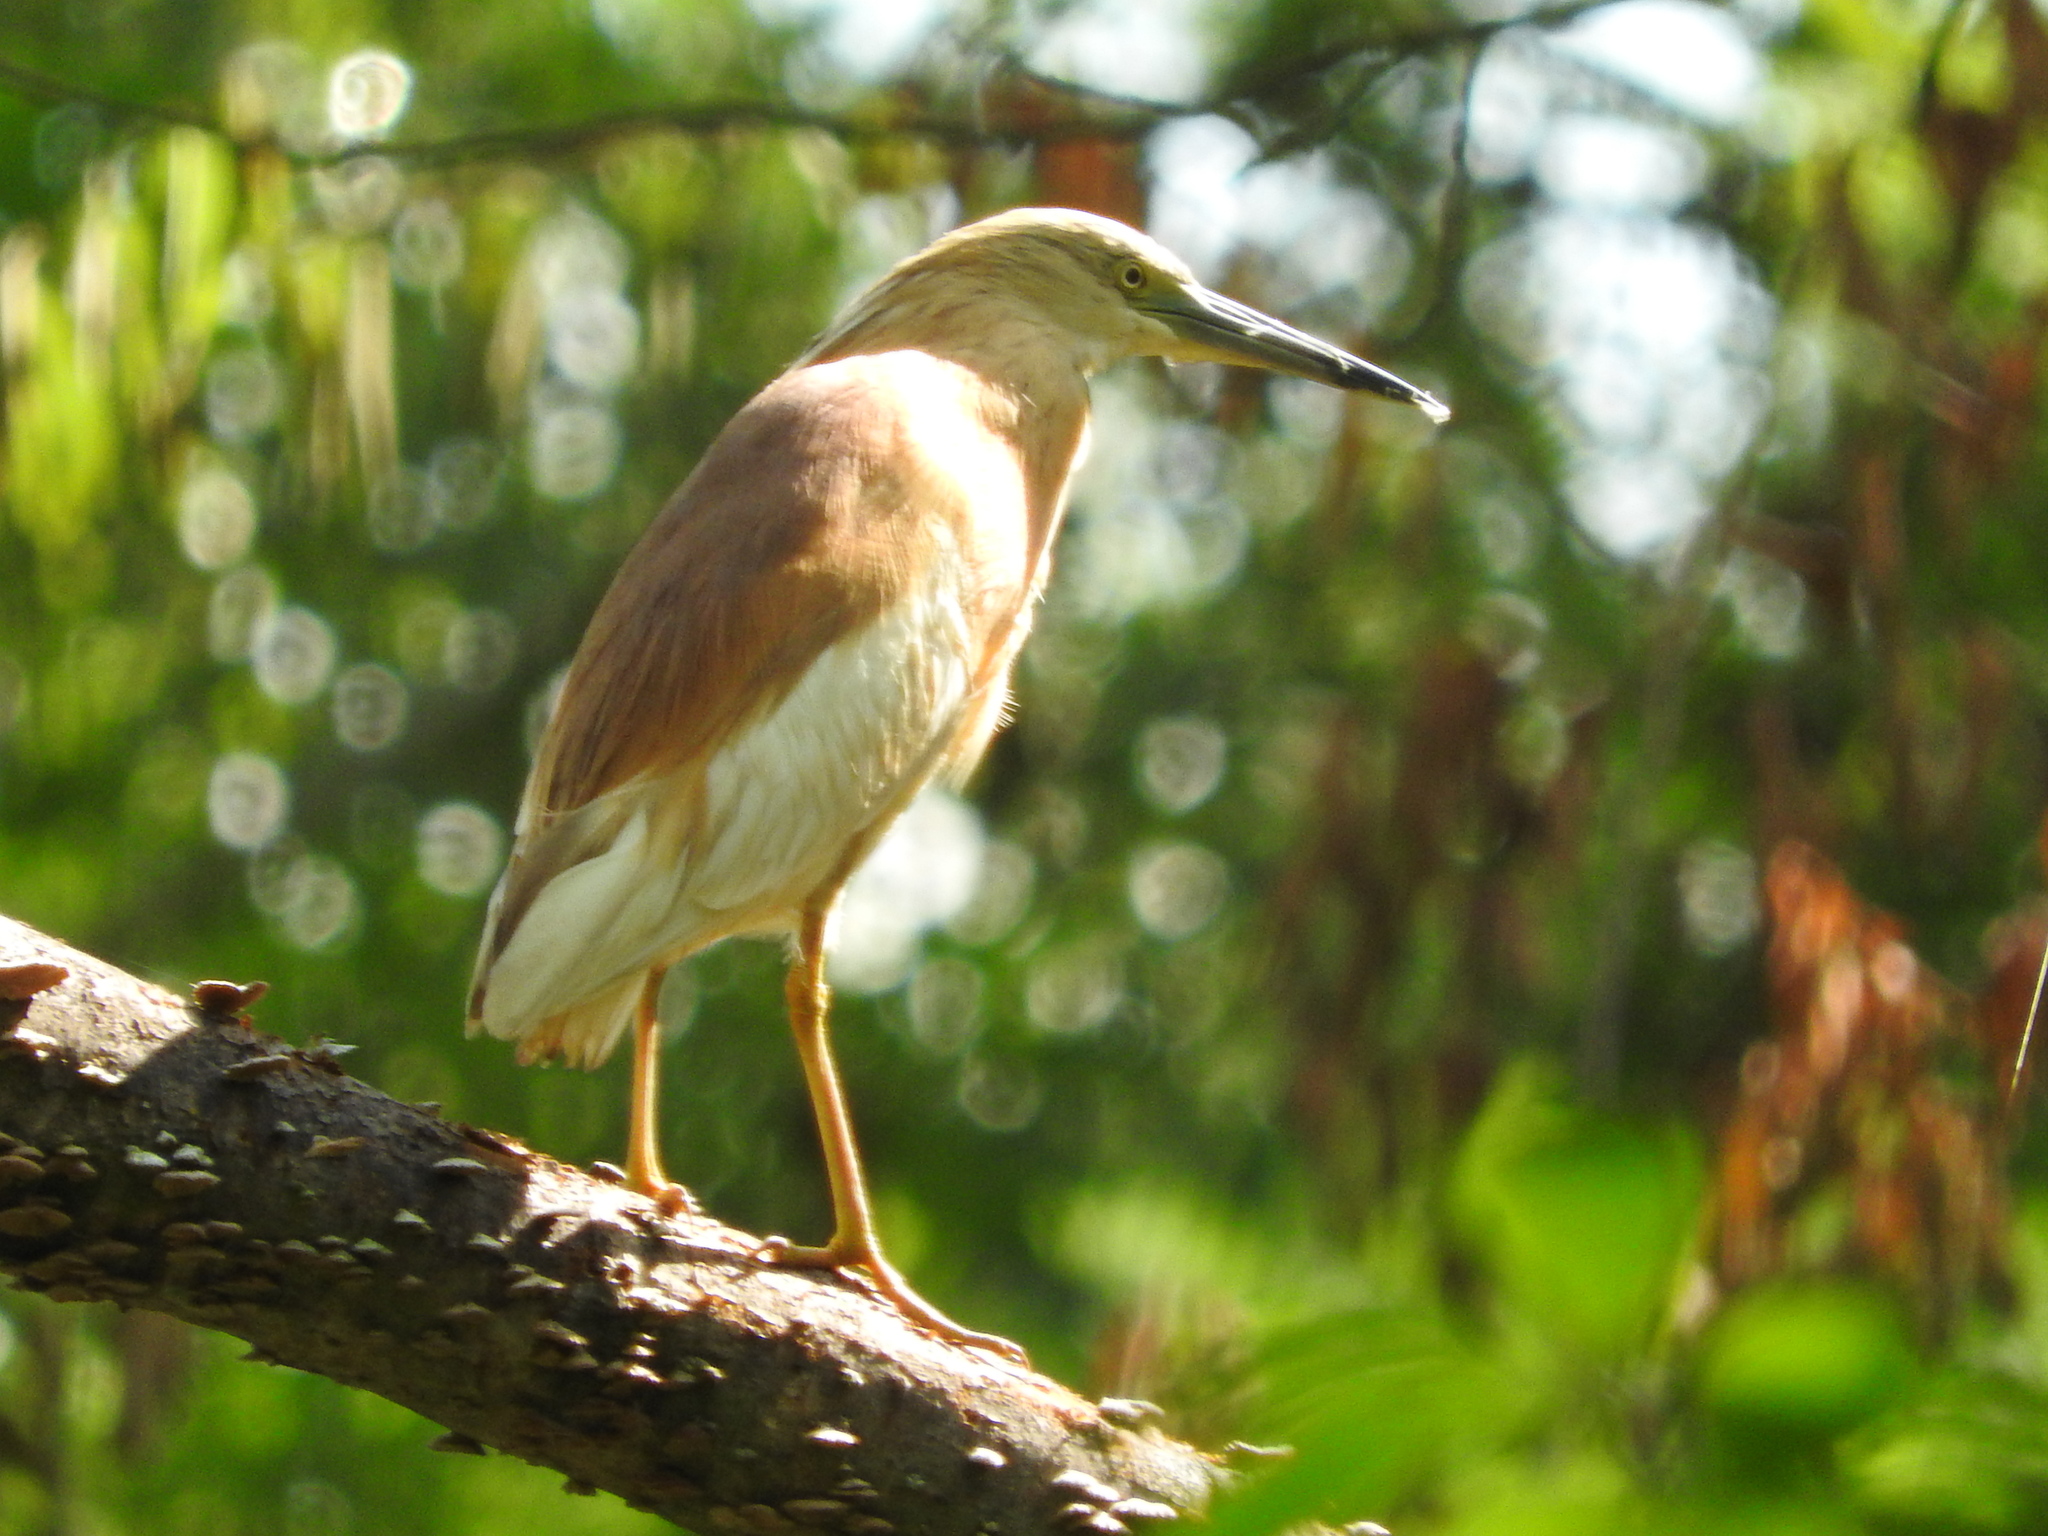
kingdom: Animalia
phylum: Chordata
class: Aves
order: Pelecaniformes
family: Ardeidae
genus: Ardeola
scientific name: Ardeola ralloides
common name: Squacco heron
